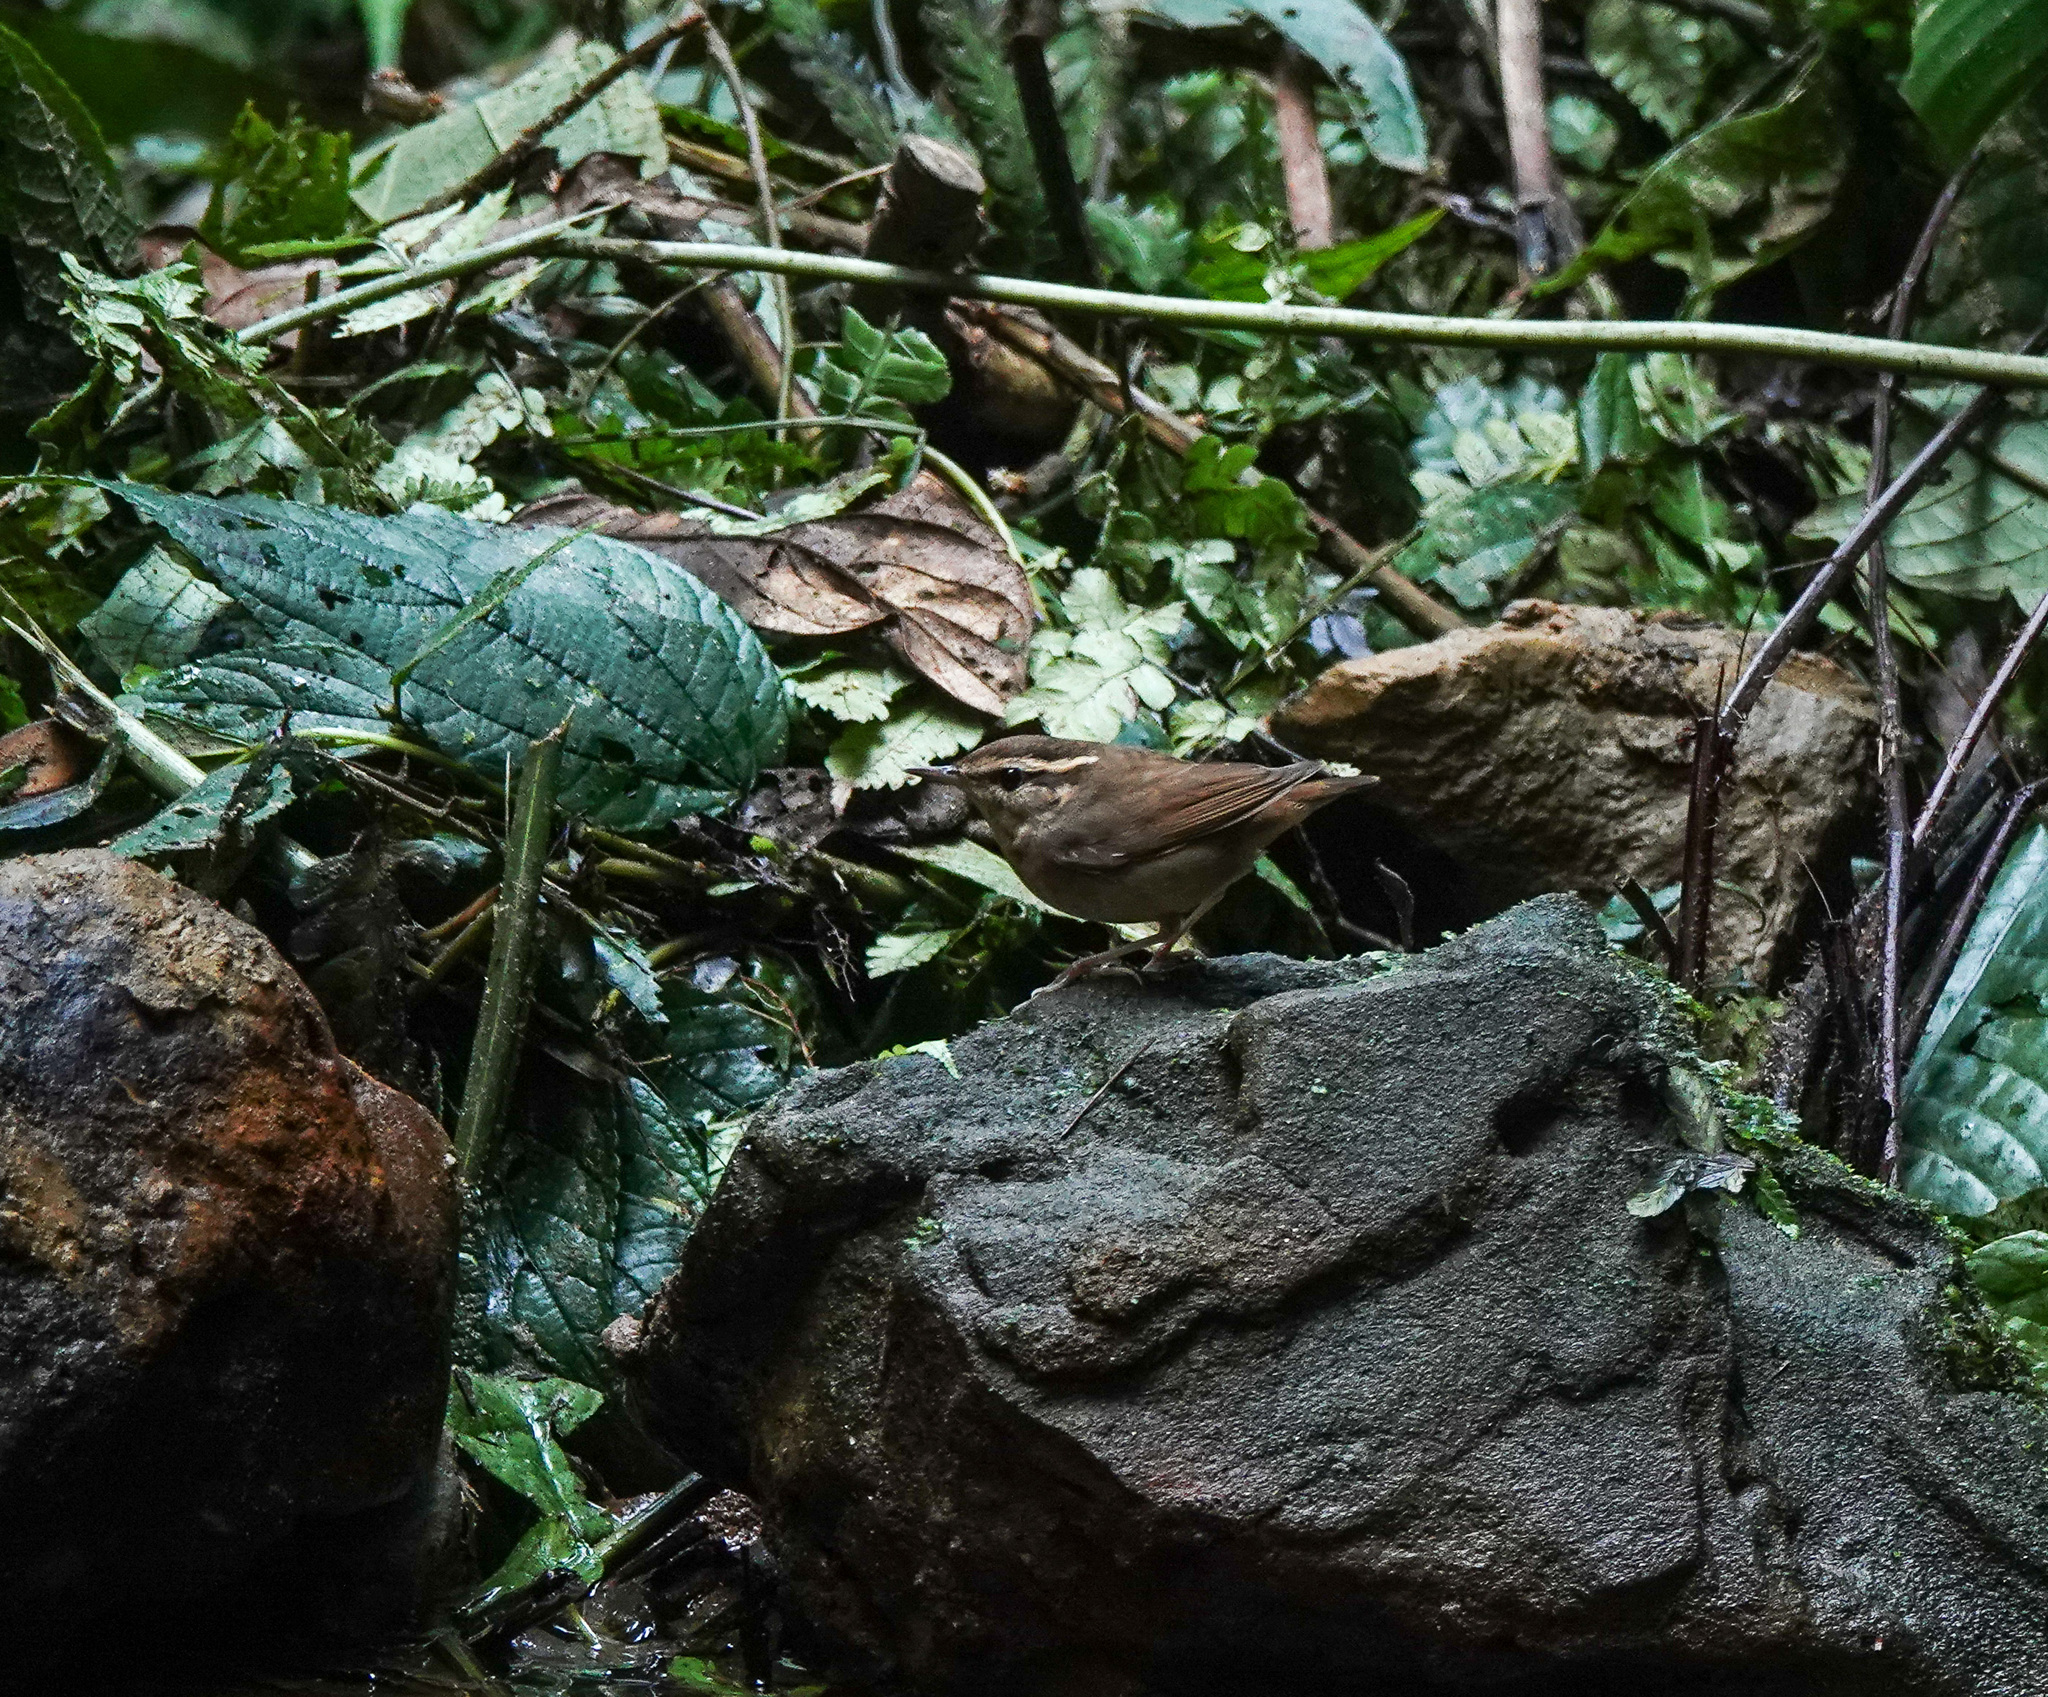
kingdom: Animalia
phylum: Chordata
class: Aves
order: Passeriformes
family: Cettiidae
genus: Urosphena
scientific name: Urosphena squameiceps
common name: Asian stubtail
